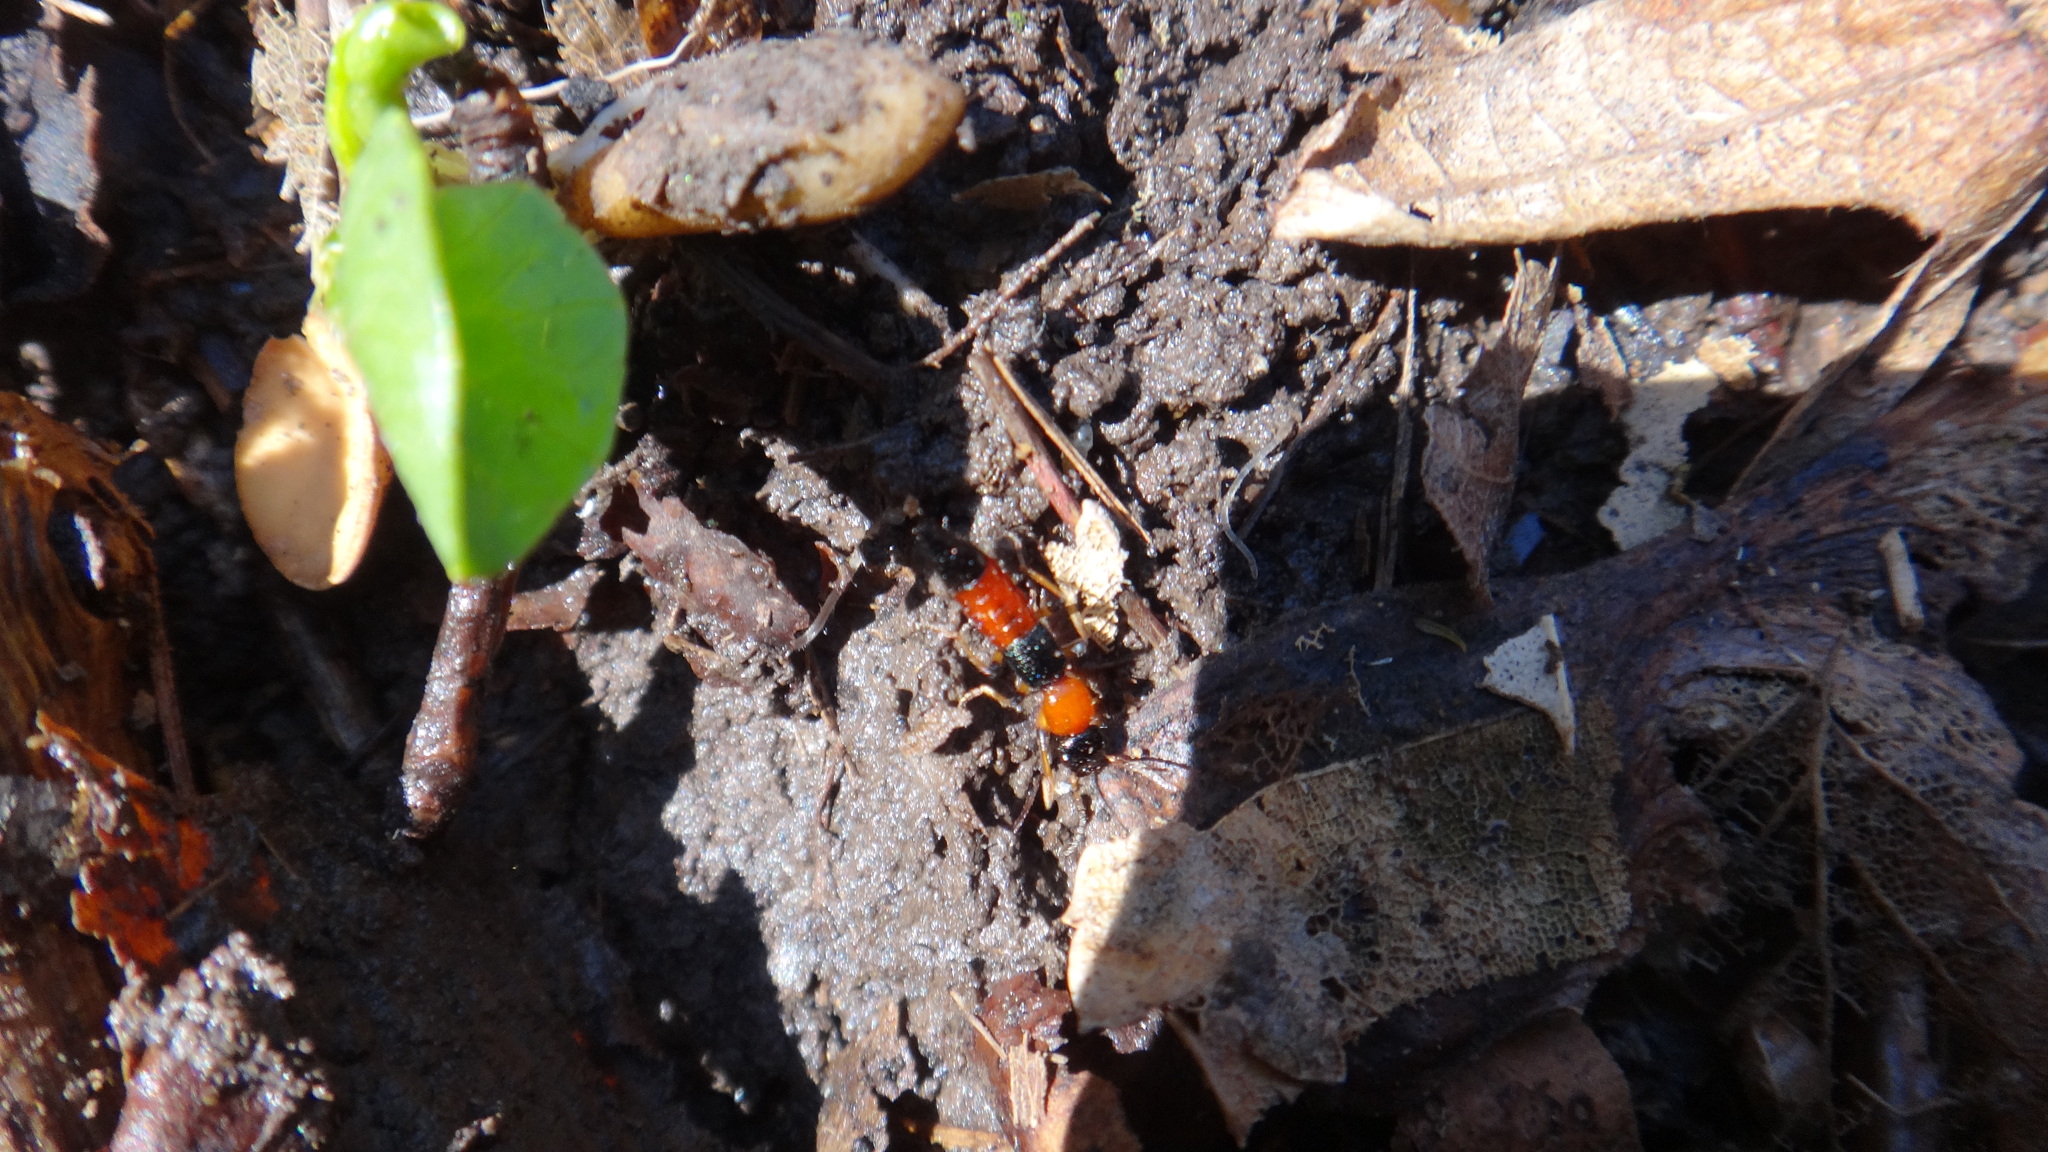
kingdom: Animalia
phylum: Arthropoda
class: Insecta
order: Coleoptera
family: Staphylinidae
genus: Paederus
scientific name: Paederus littoralis
